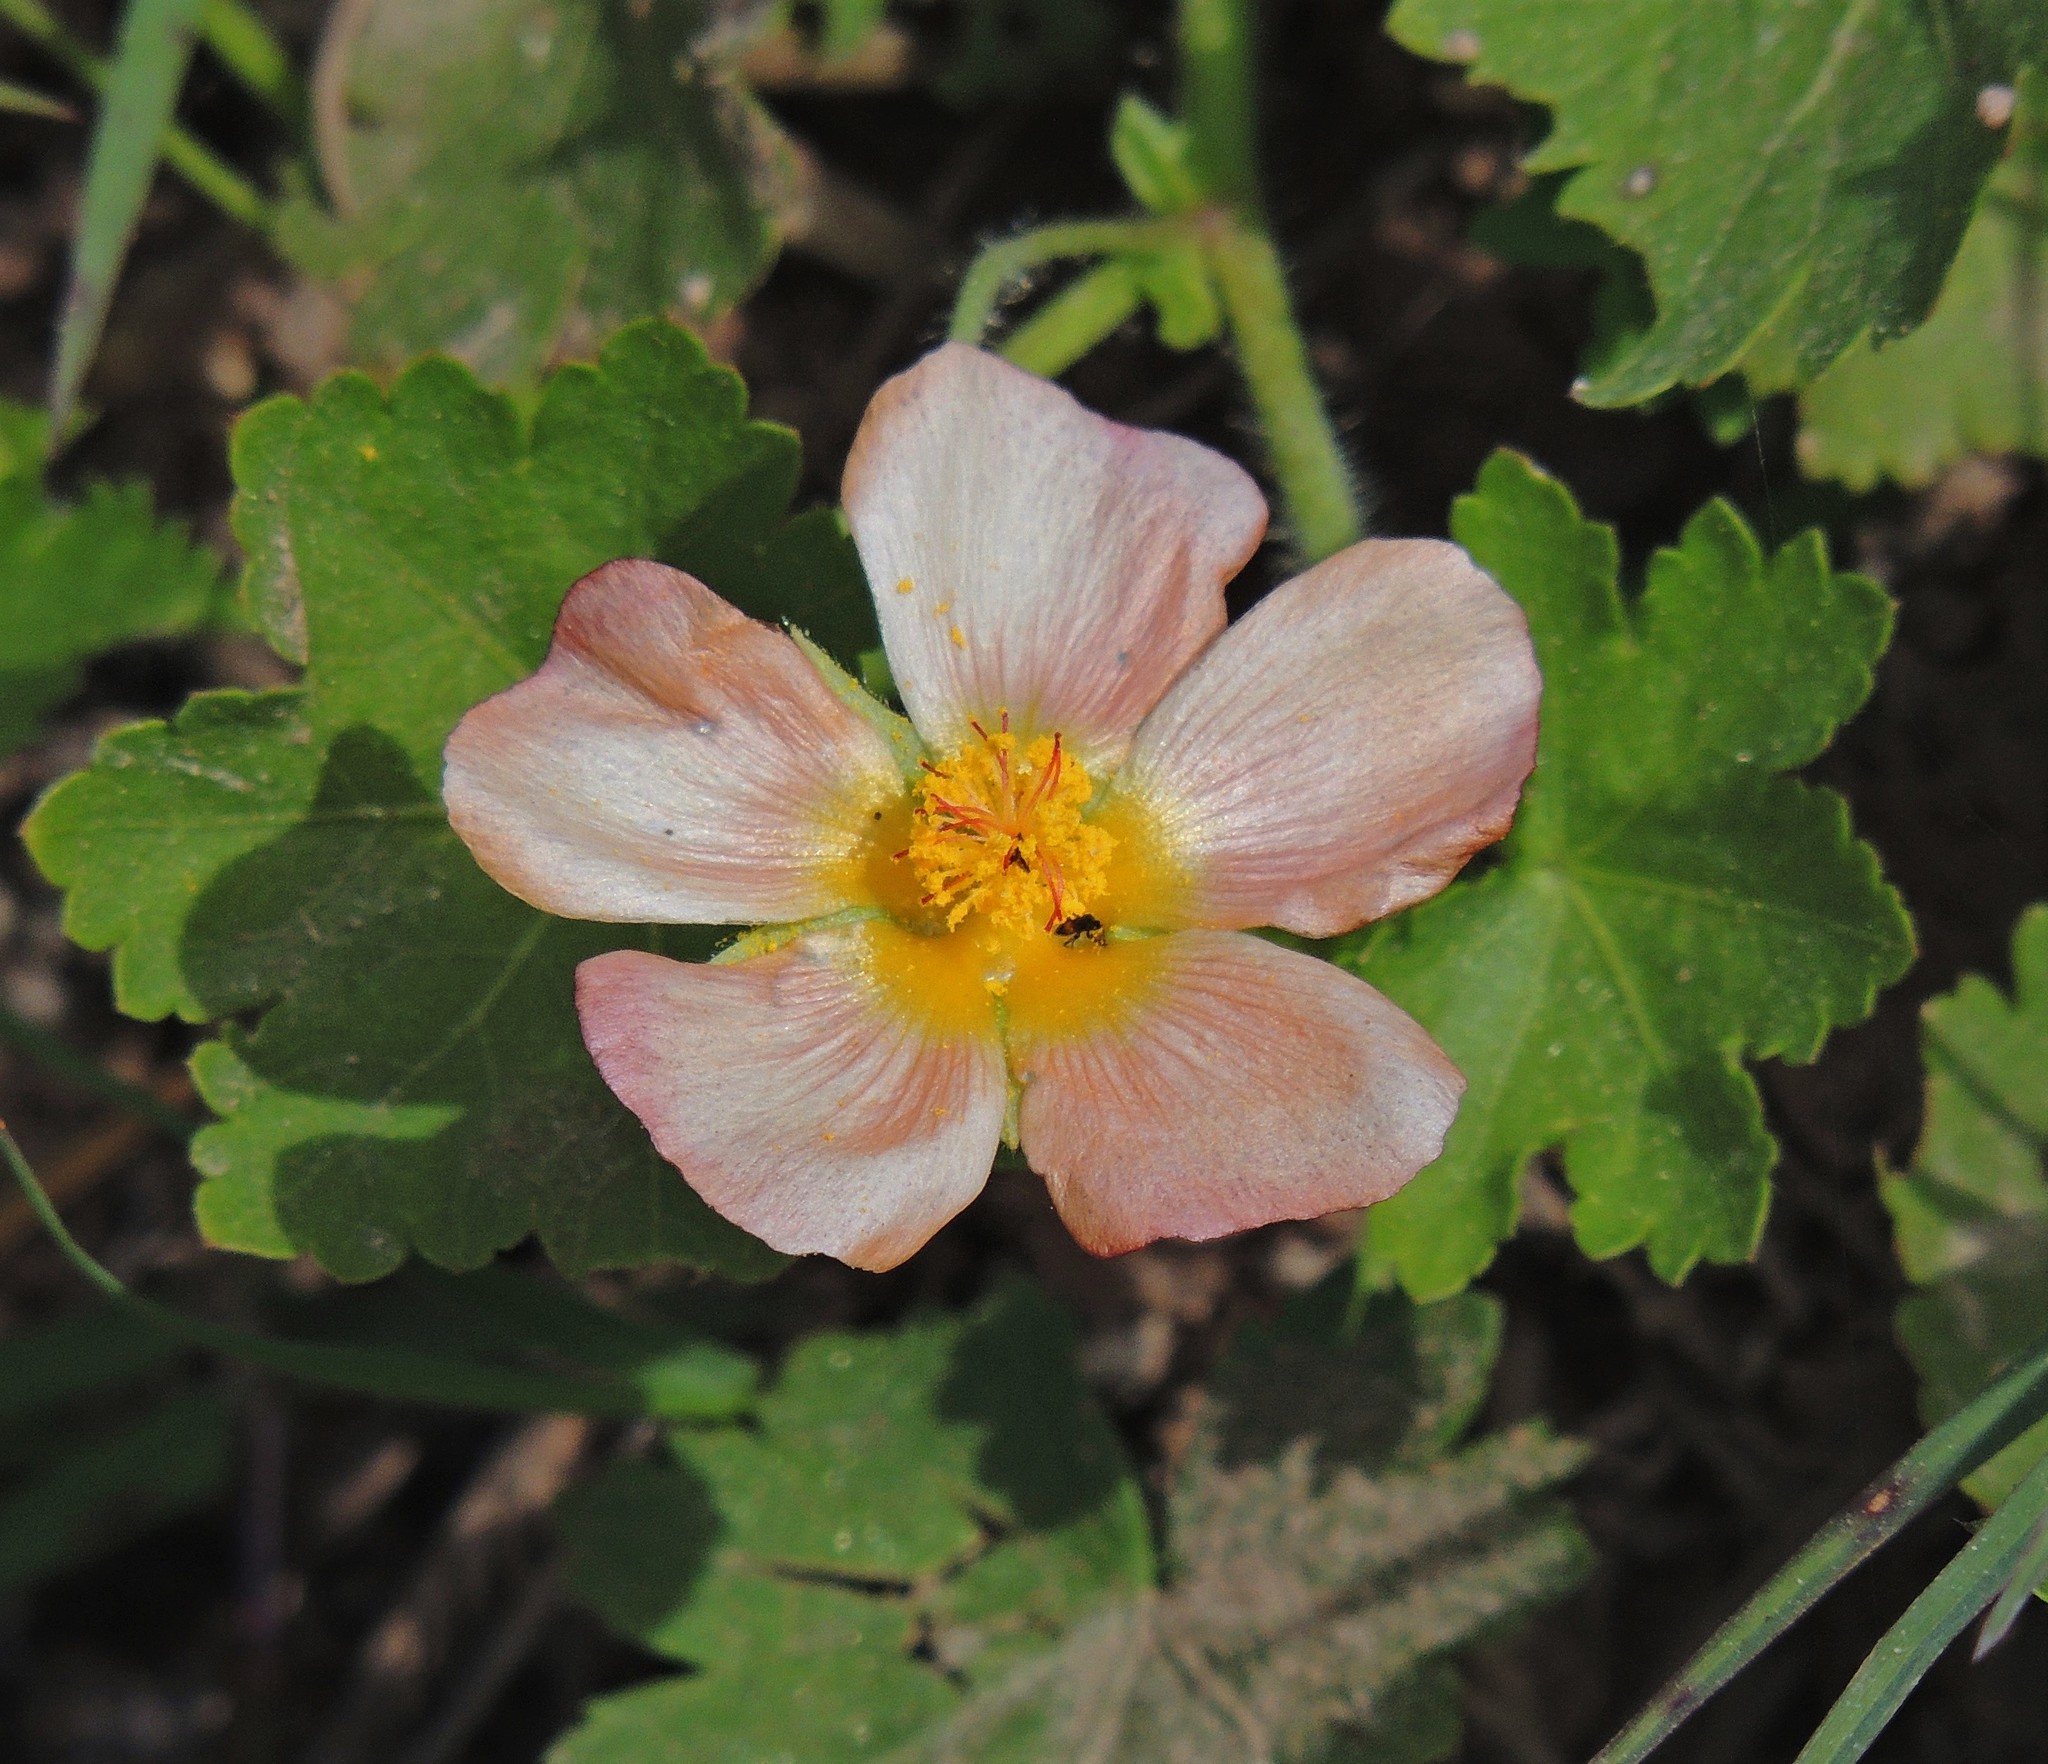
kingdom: Plantae
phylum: Tracheophyta
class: Magnoliopsida
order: Malvales
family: Malvaceae
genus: Modiolastrum
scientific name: Modiolastrum malvifolium
